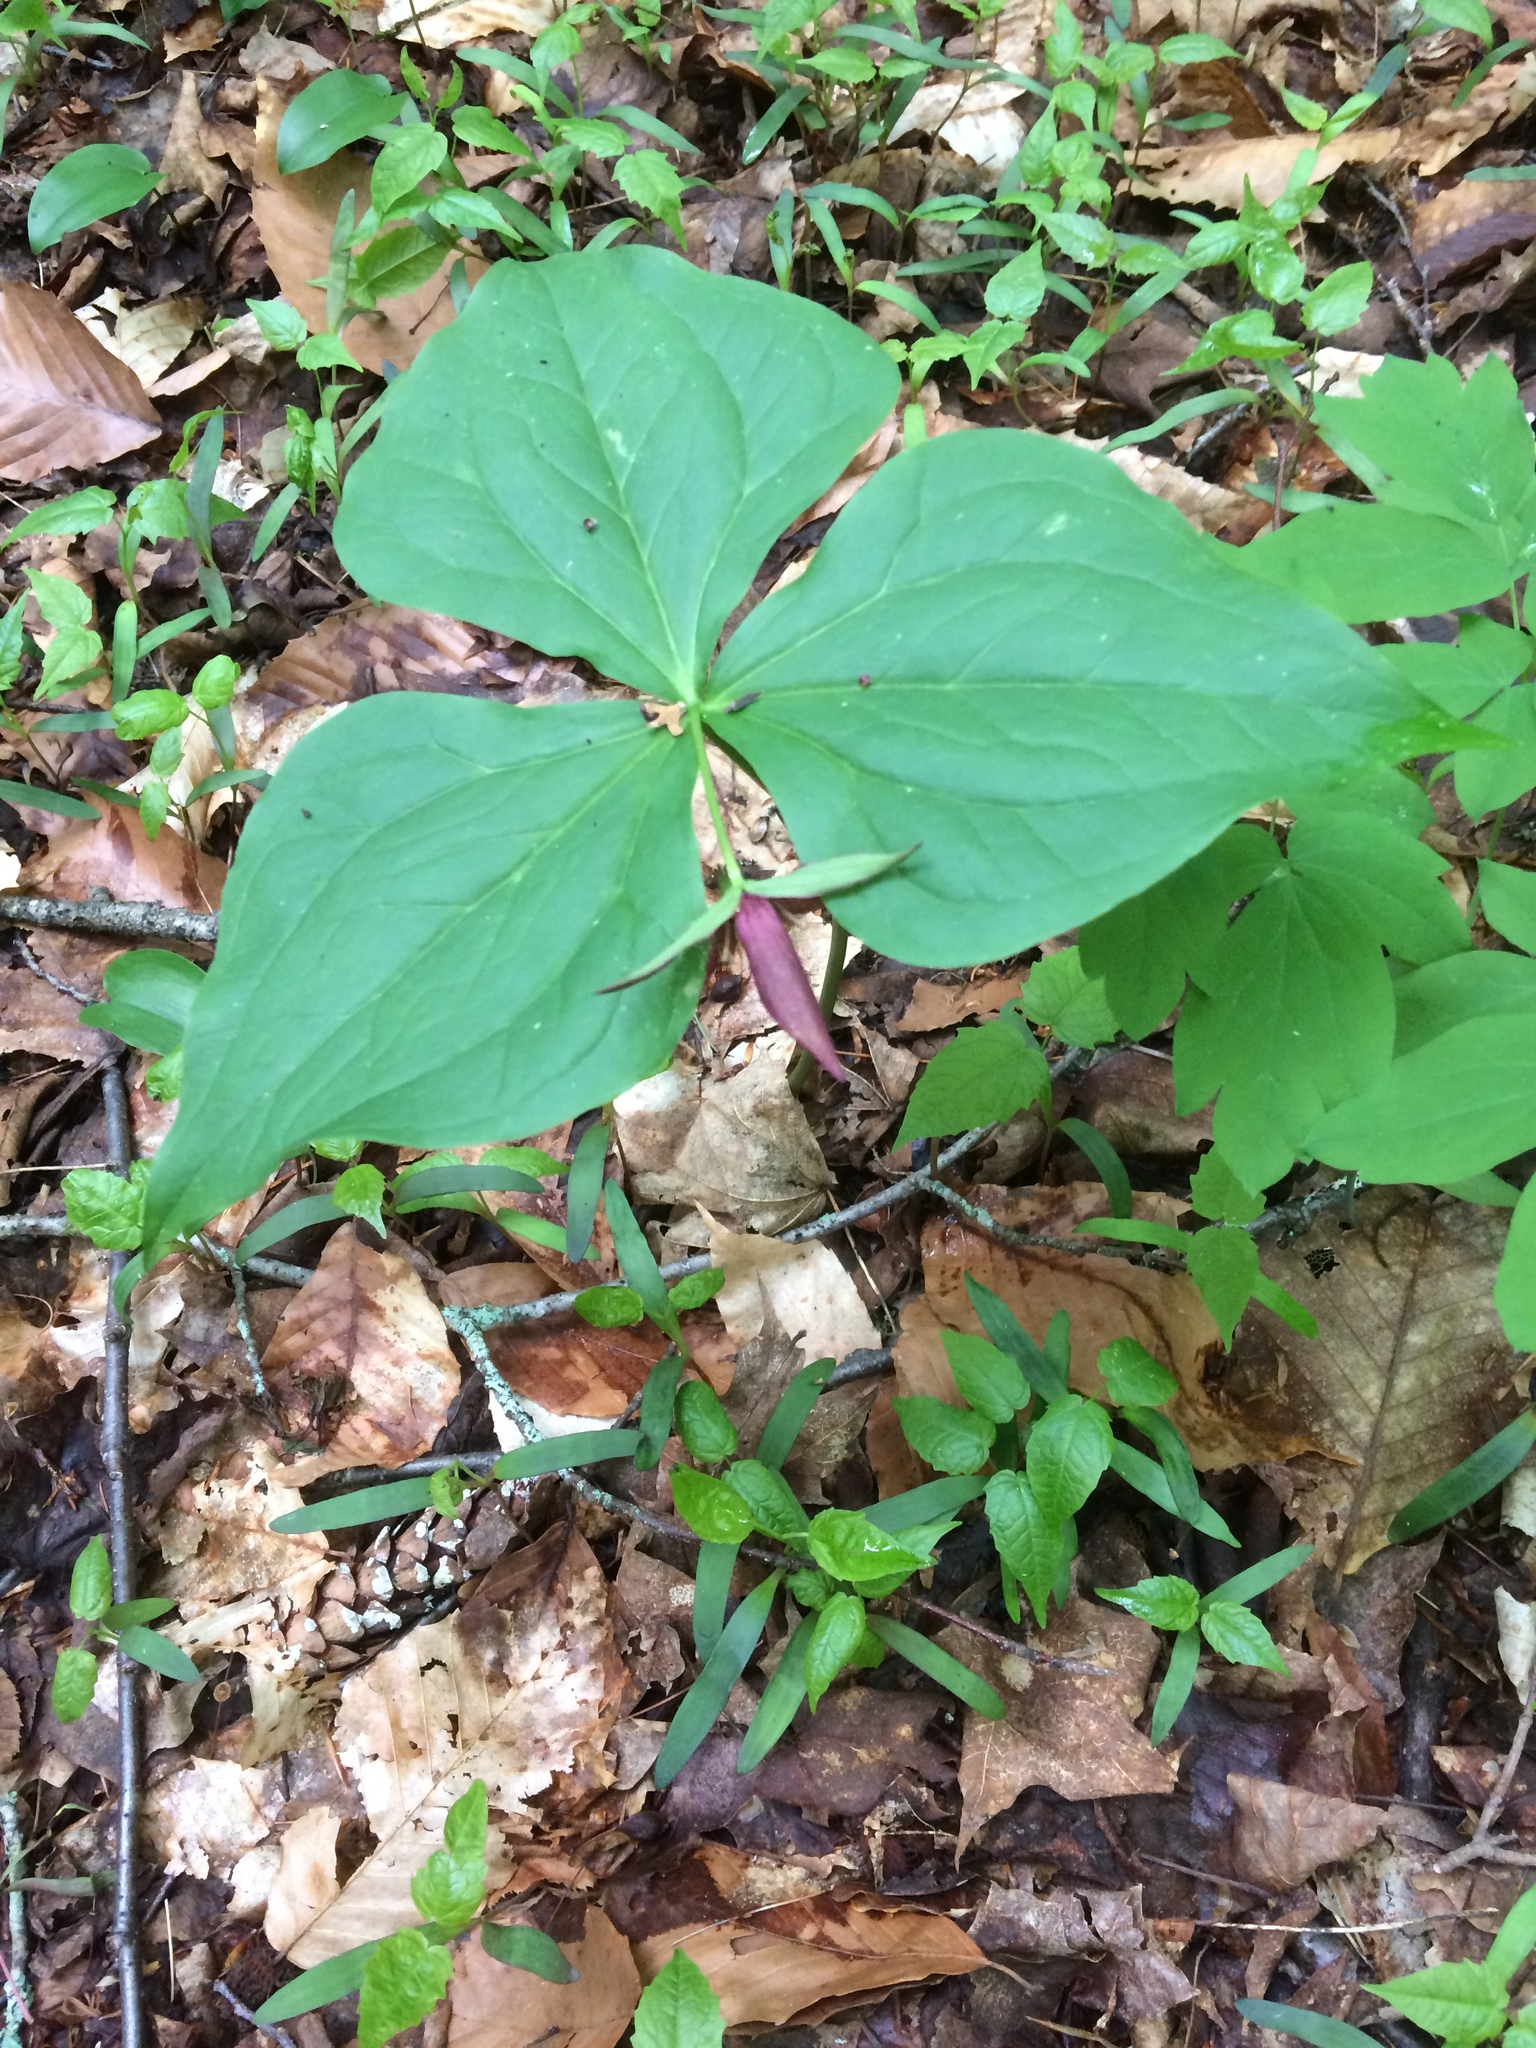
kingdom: Plantae
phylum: Tracheophyta
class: Liliopsida
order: Liliales
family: Melanthiaceae
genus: Trillium
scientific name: Trillium erectum
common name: Purple trillium
